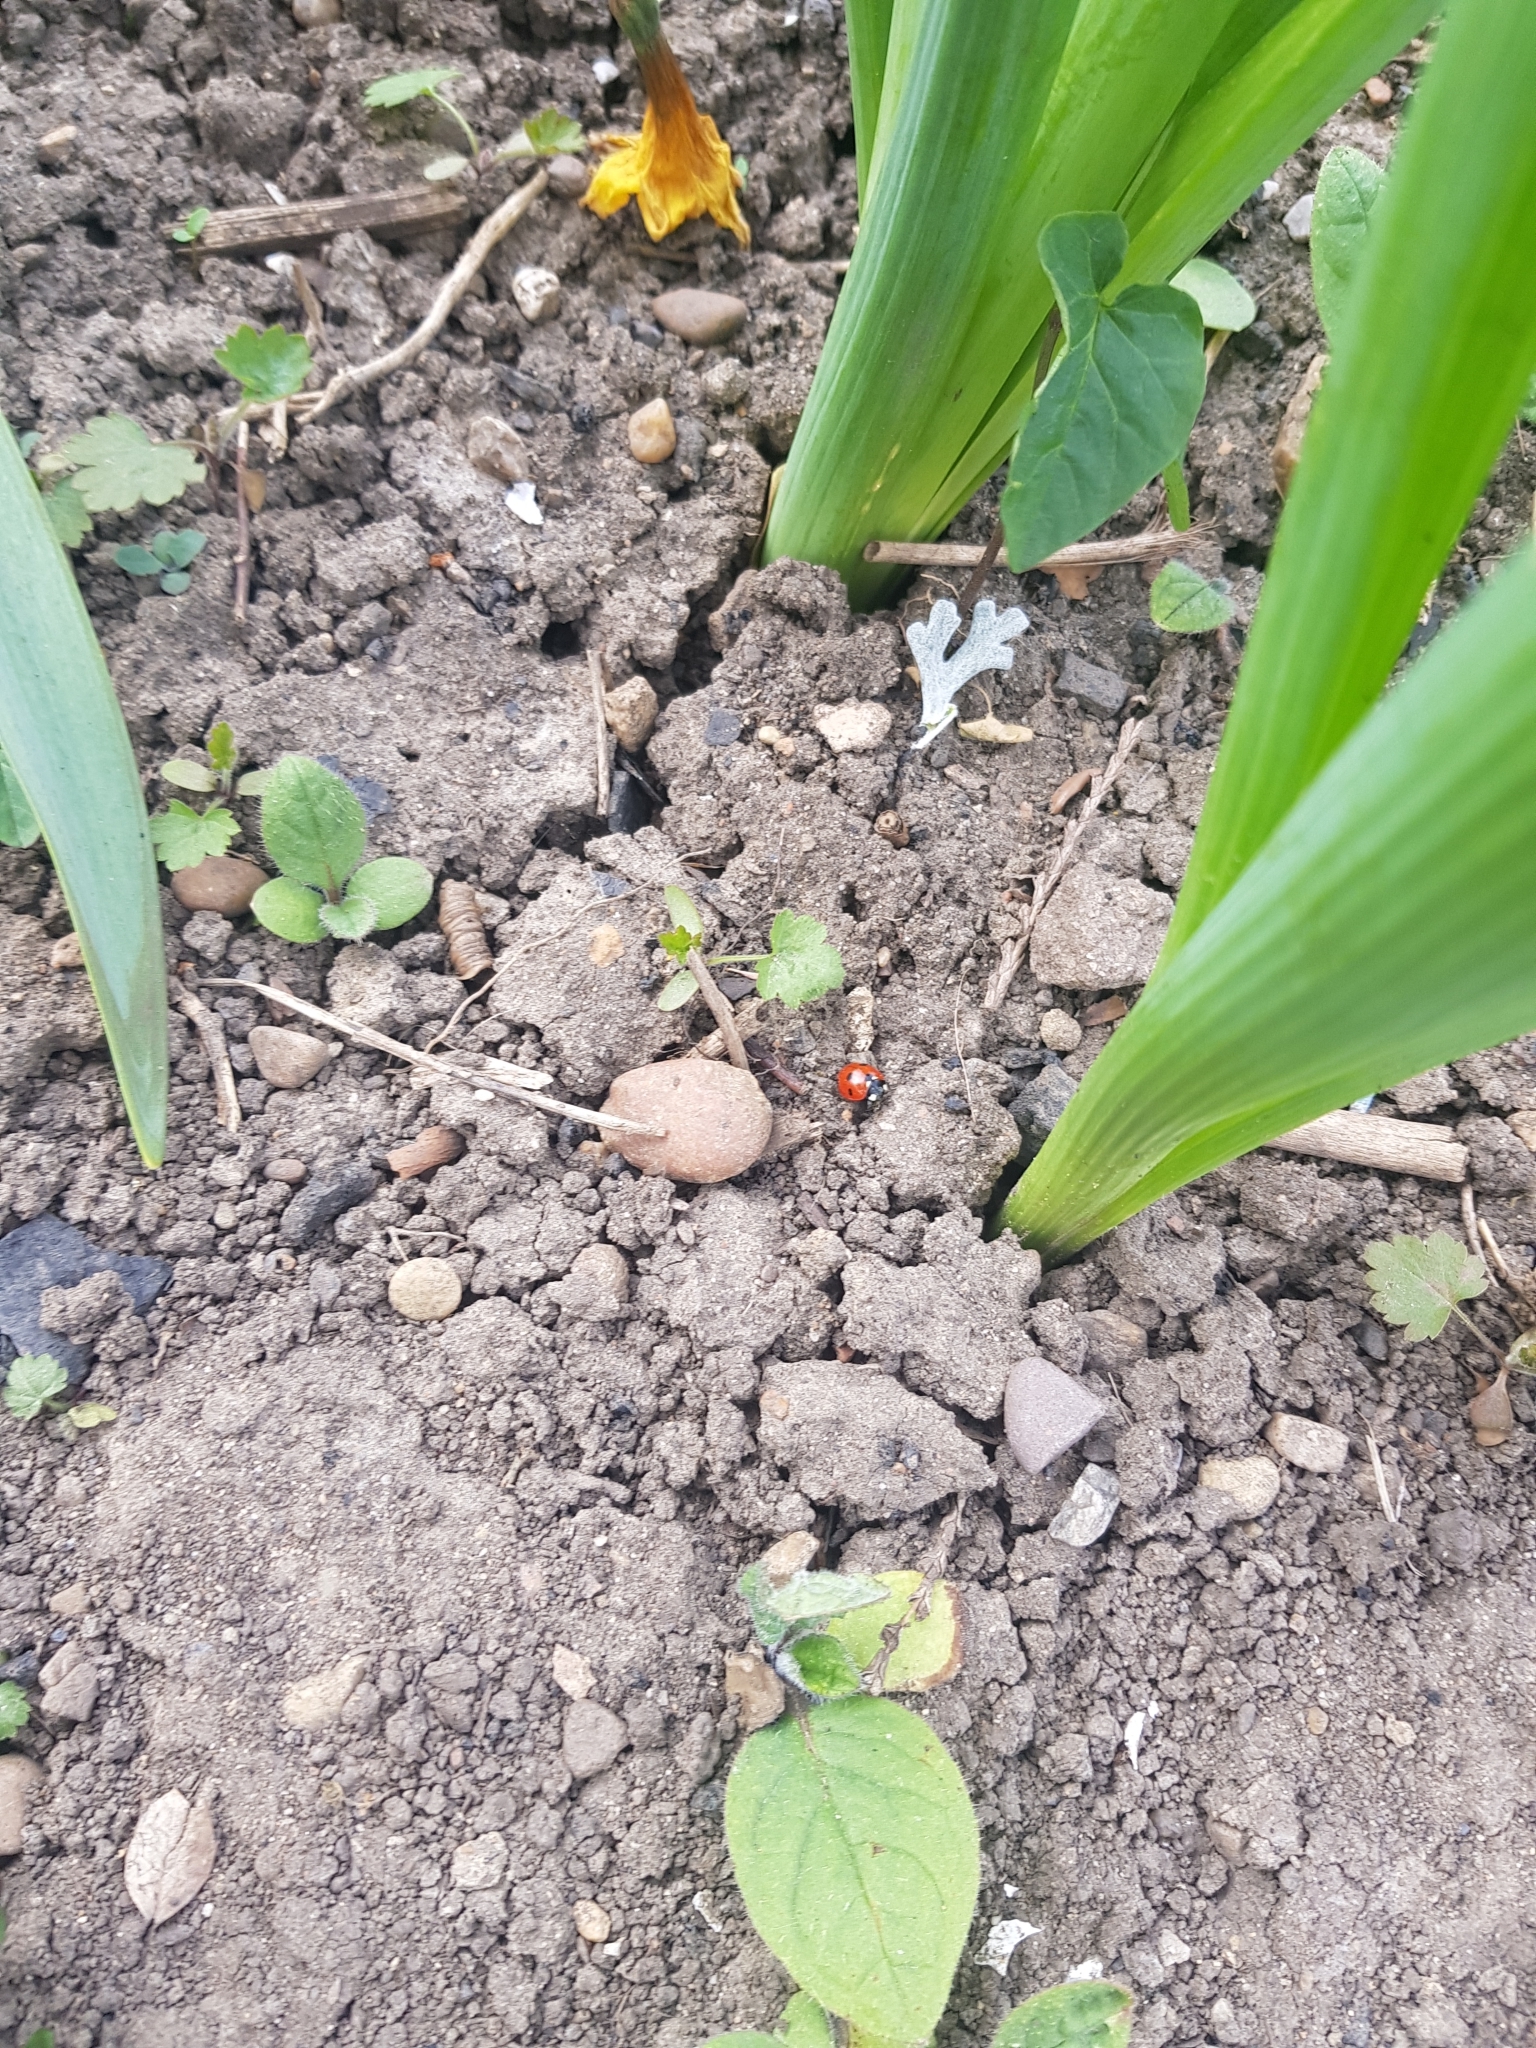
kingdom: Animalia
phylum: Arthropoda
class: Insecta
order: Coleoptera
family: Coccinellidae
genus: Coccinella
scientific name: Coccinella septempunctata
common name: Sevenspotted lady beetle
